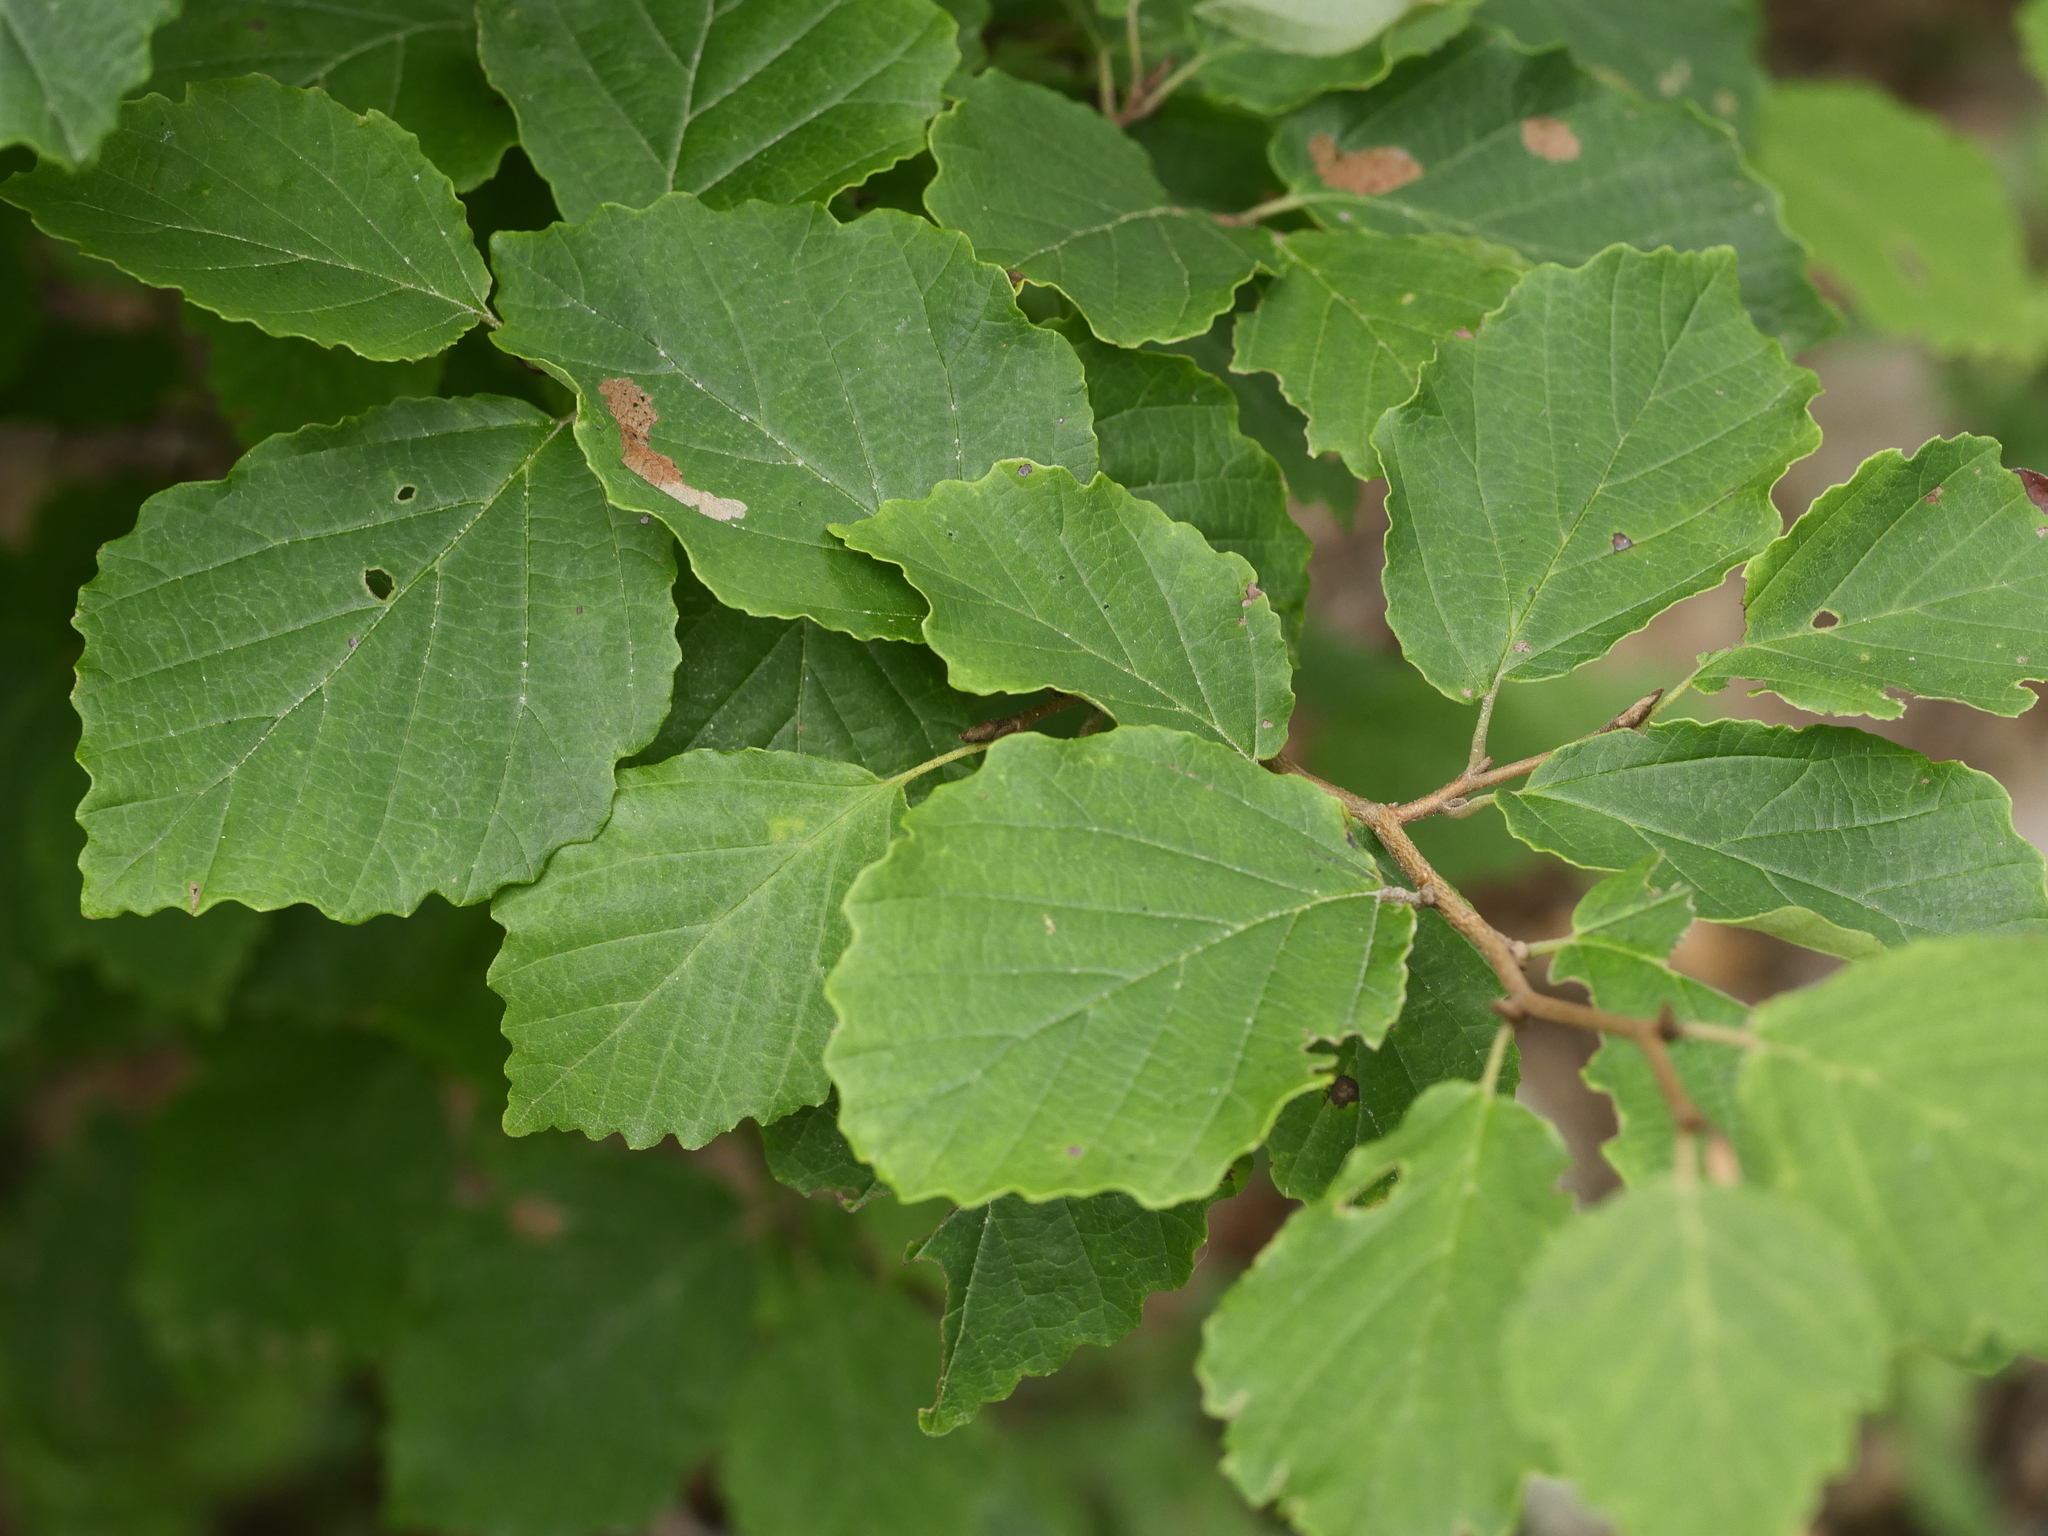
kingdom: Plantae
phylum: Tracheophyta
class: Magnoliopsida
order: Saxifragales
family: Hamamelidaceae
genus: Hamamelis
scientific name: Hamamelis virginiana
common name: Witch-hazel
